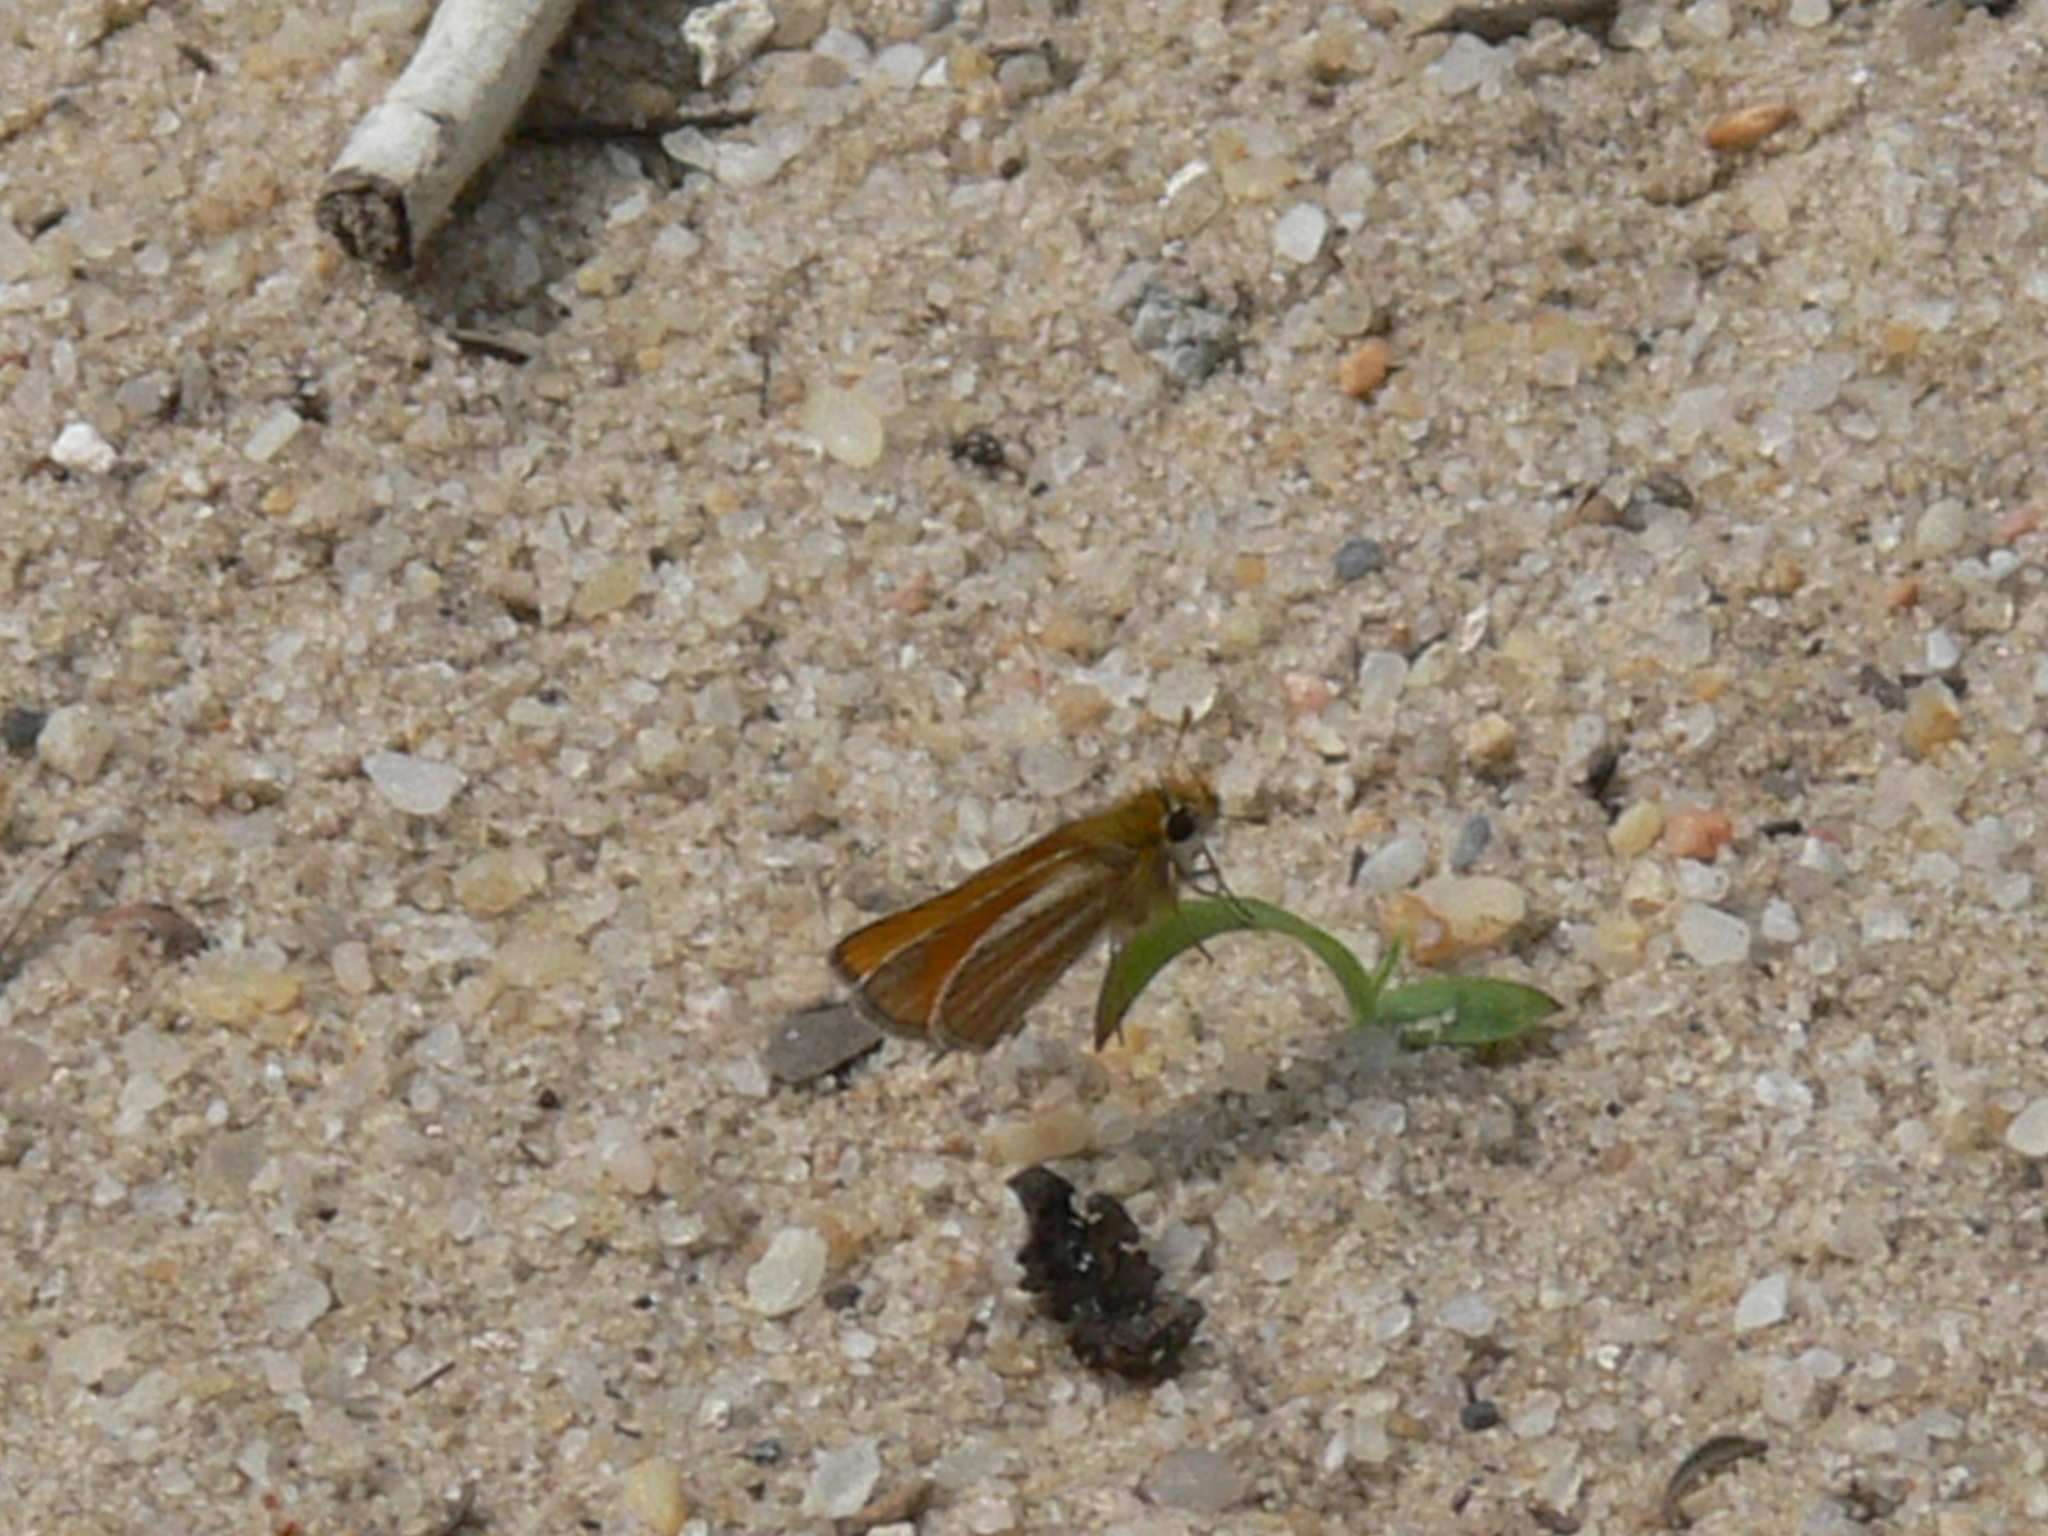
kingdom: Animalia
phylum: Arthropoda
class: Insecta
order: Lepidoptera
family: Hesperiidae
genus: Copaeodes
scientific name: Copaeodes minima
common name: Southern skipperling
